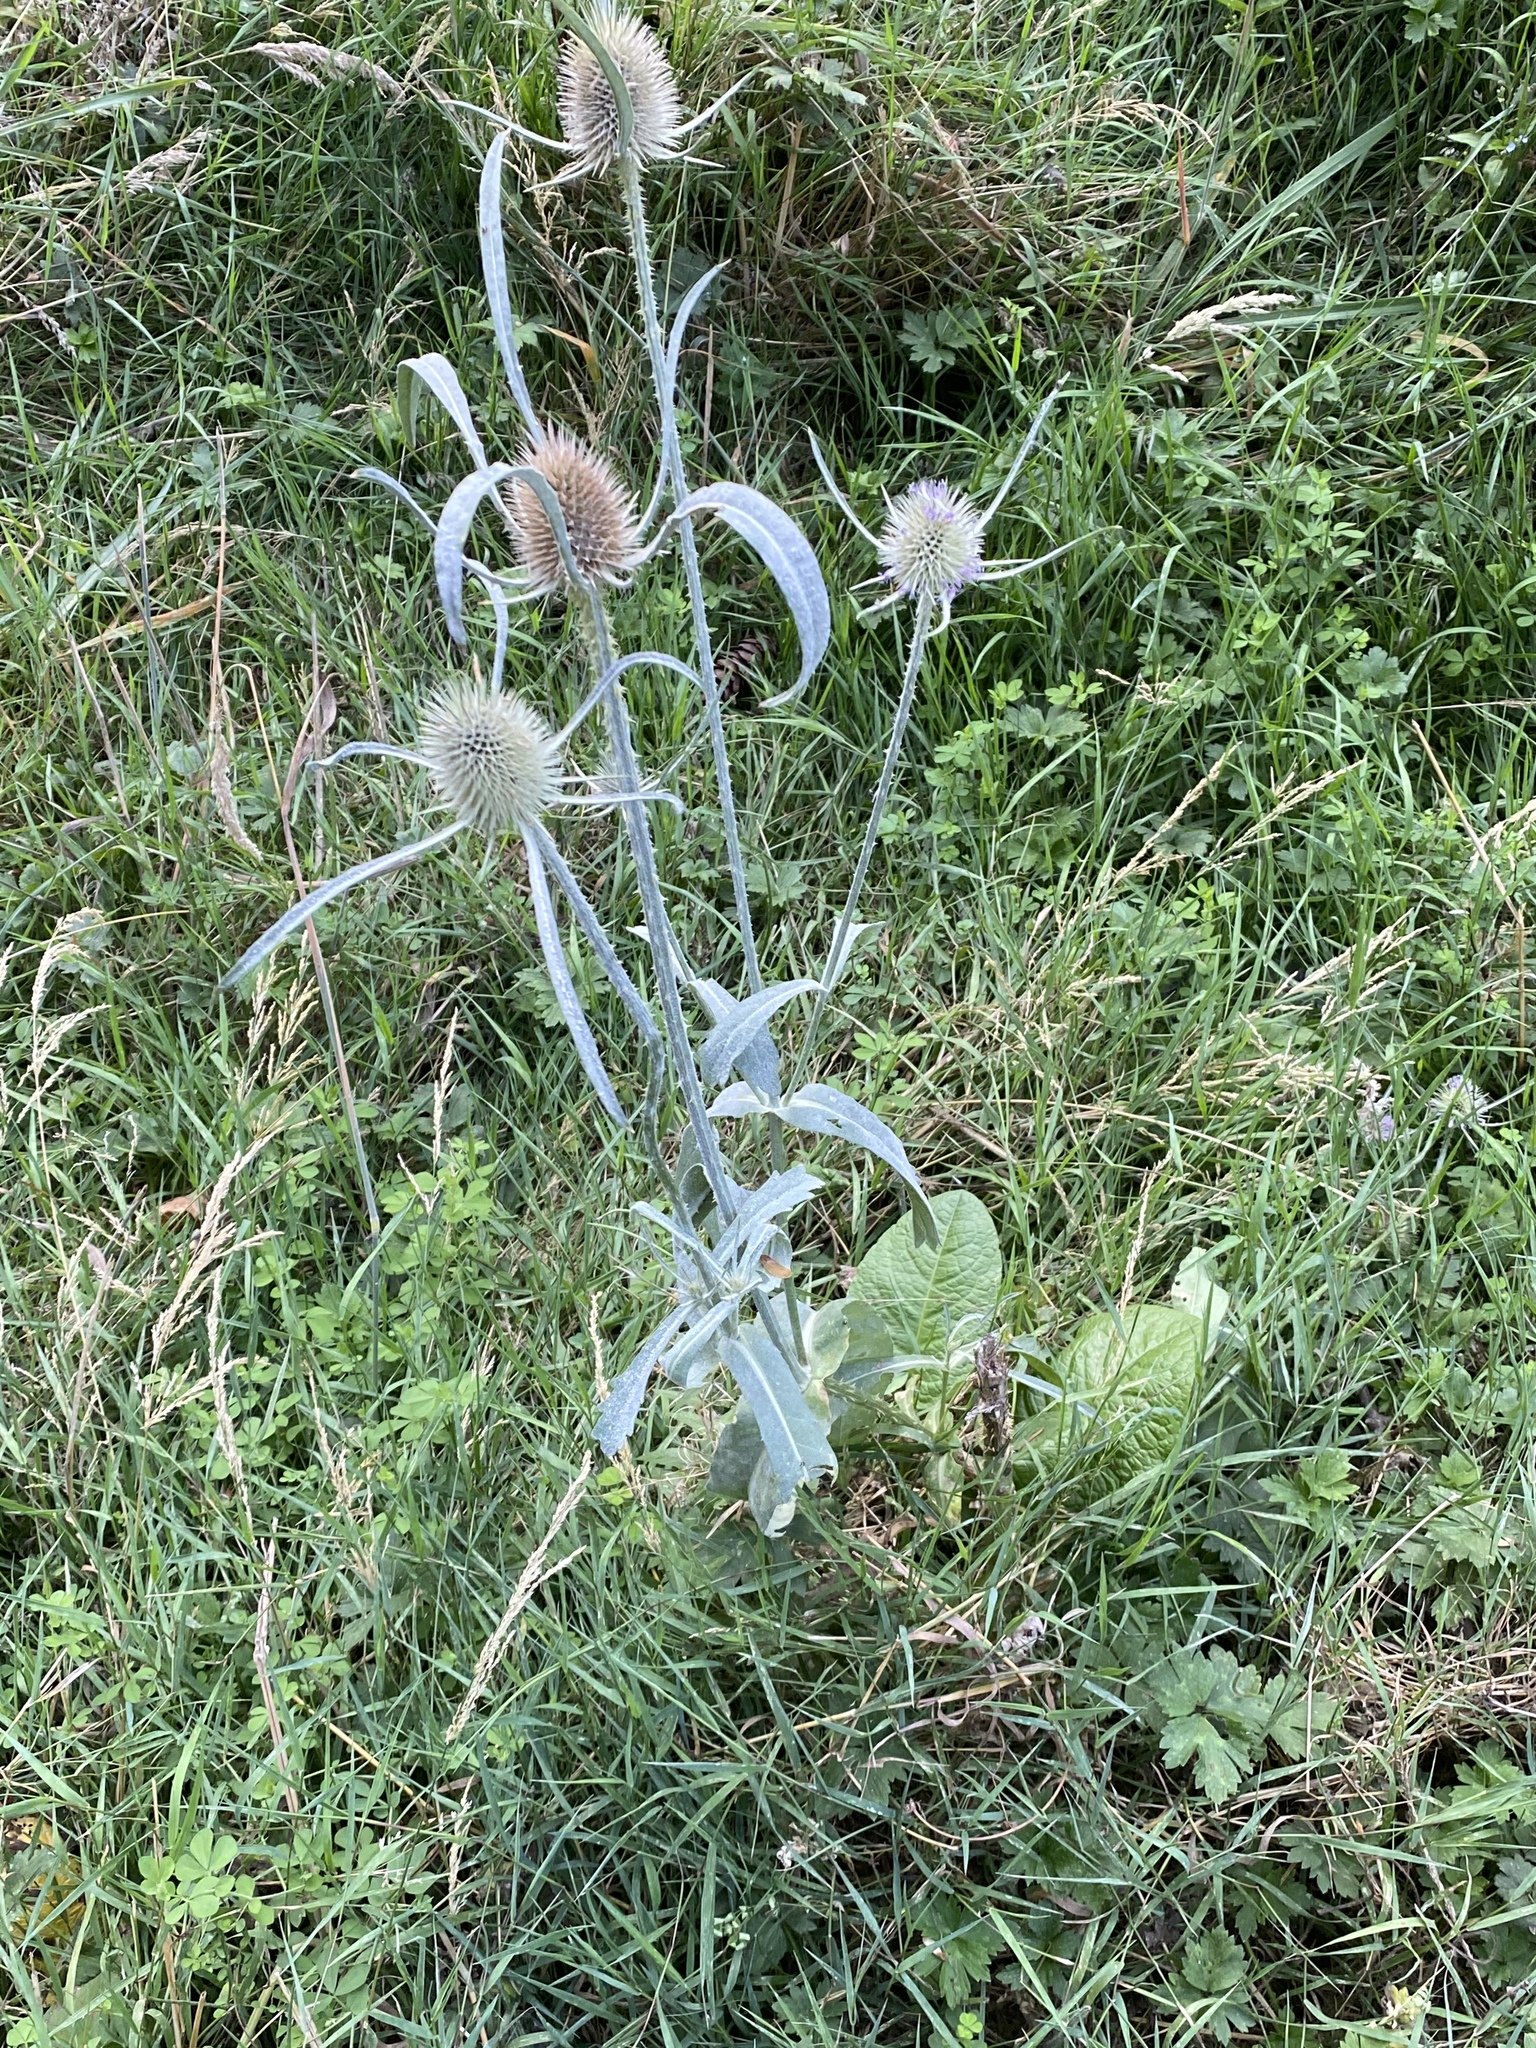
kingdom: Plantae
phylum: Tracheophyta
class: Magnoliopsida
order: Dipsacales
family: Caprifoliaceae
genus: Dipsacus
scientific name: Dipsacus fullonum
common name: Teasel
